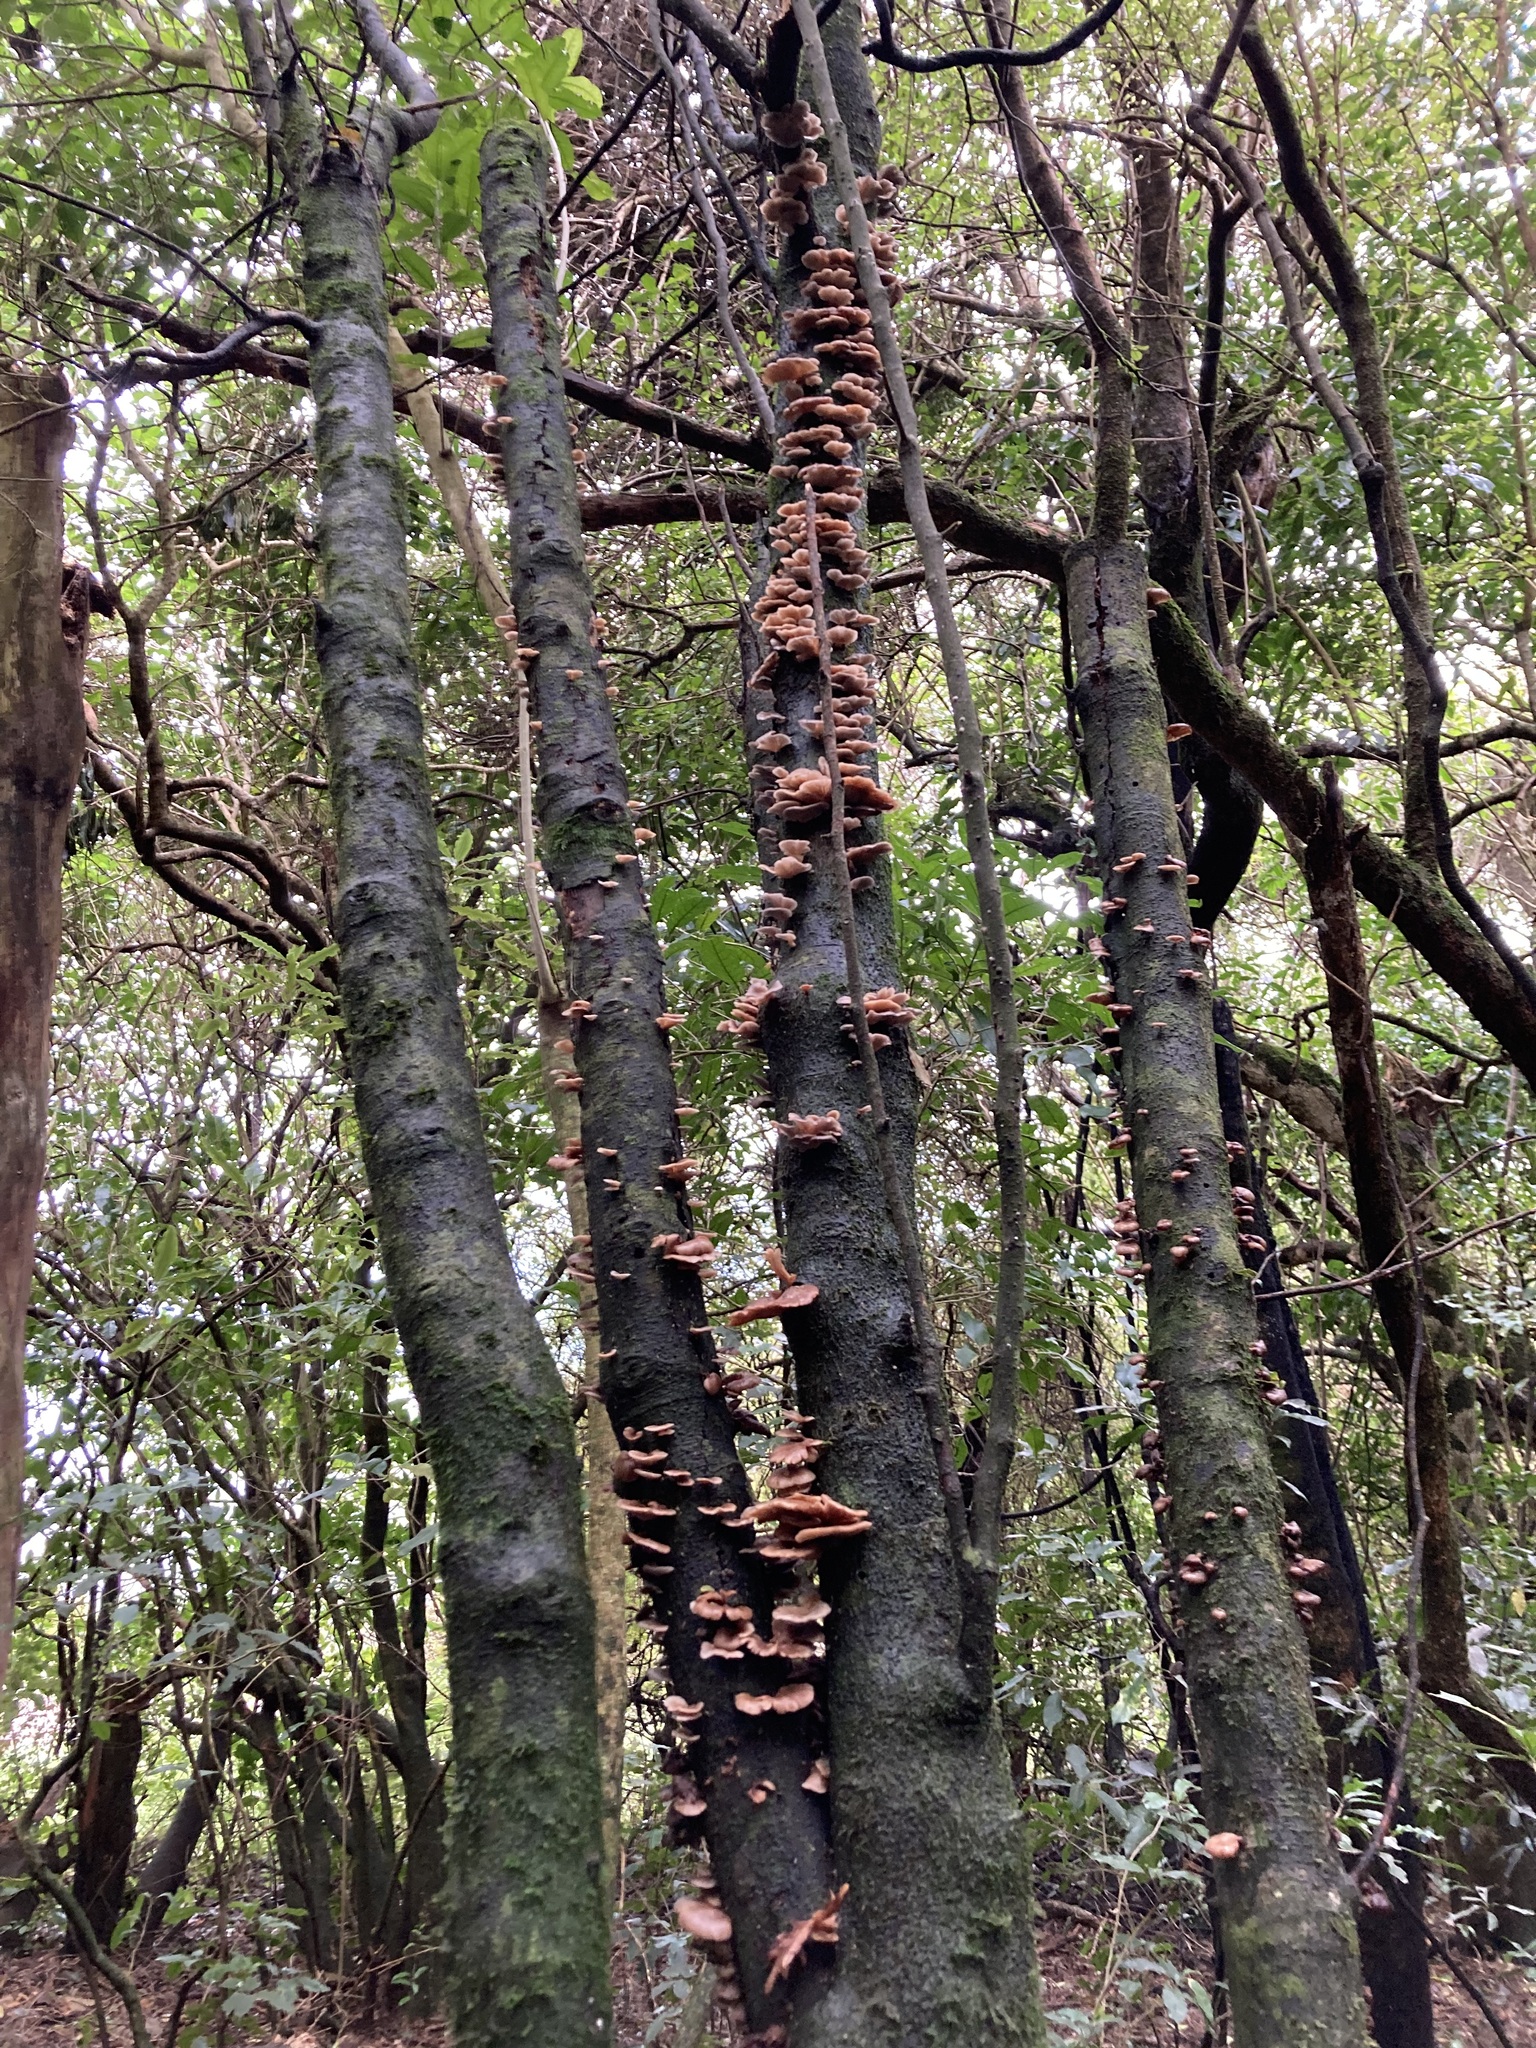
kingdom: Fungi
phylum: Basidiomycota
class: Agaricomycetes
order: Agaricales
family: Mycenaceae
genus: Panellus
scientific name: Panellus longinquus
